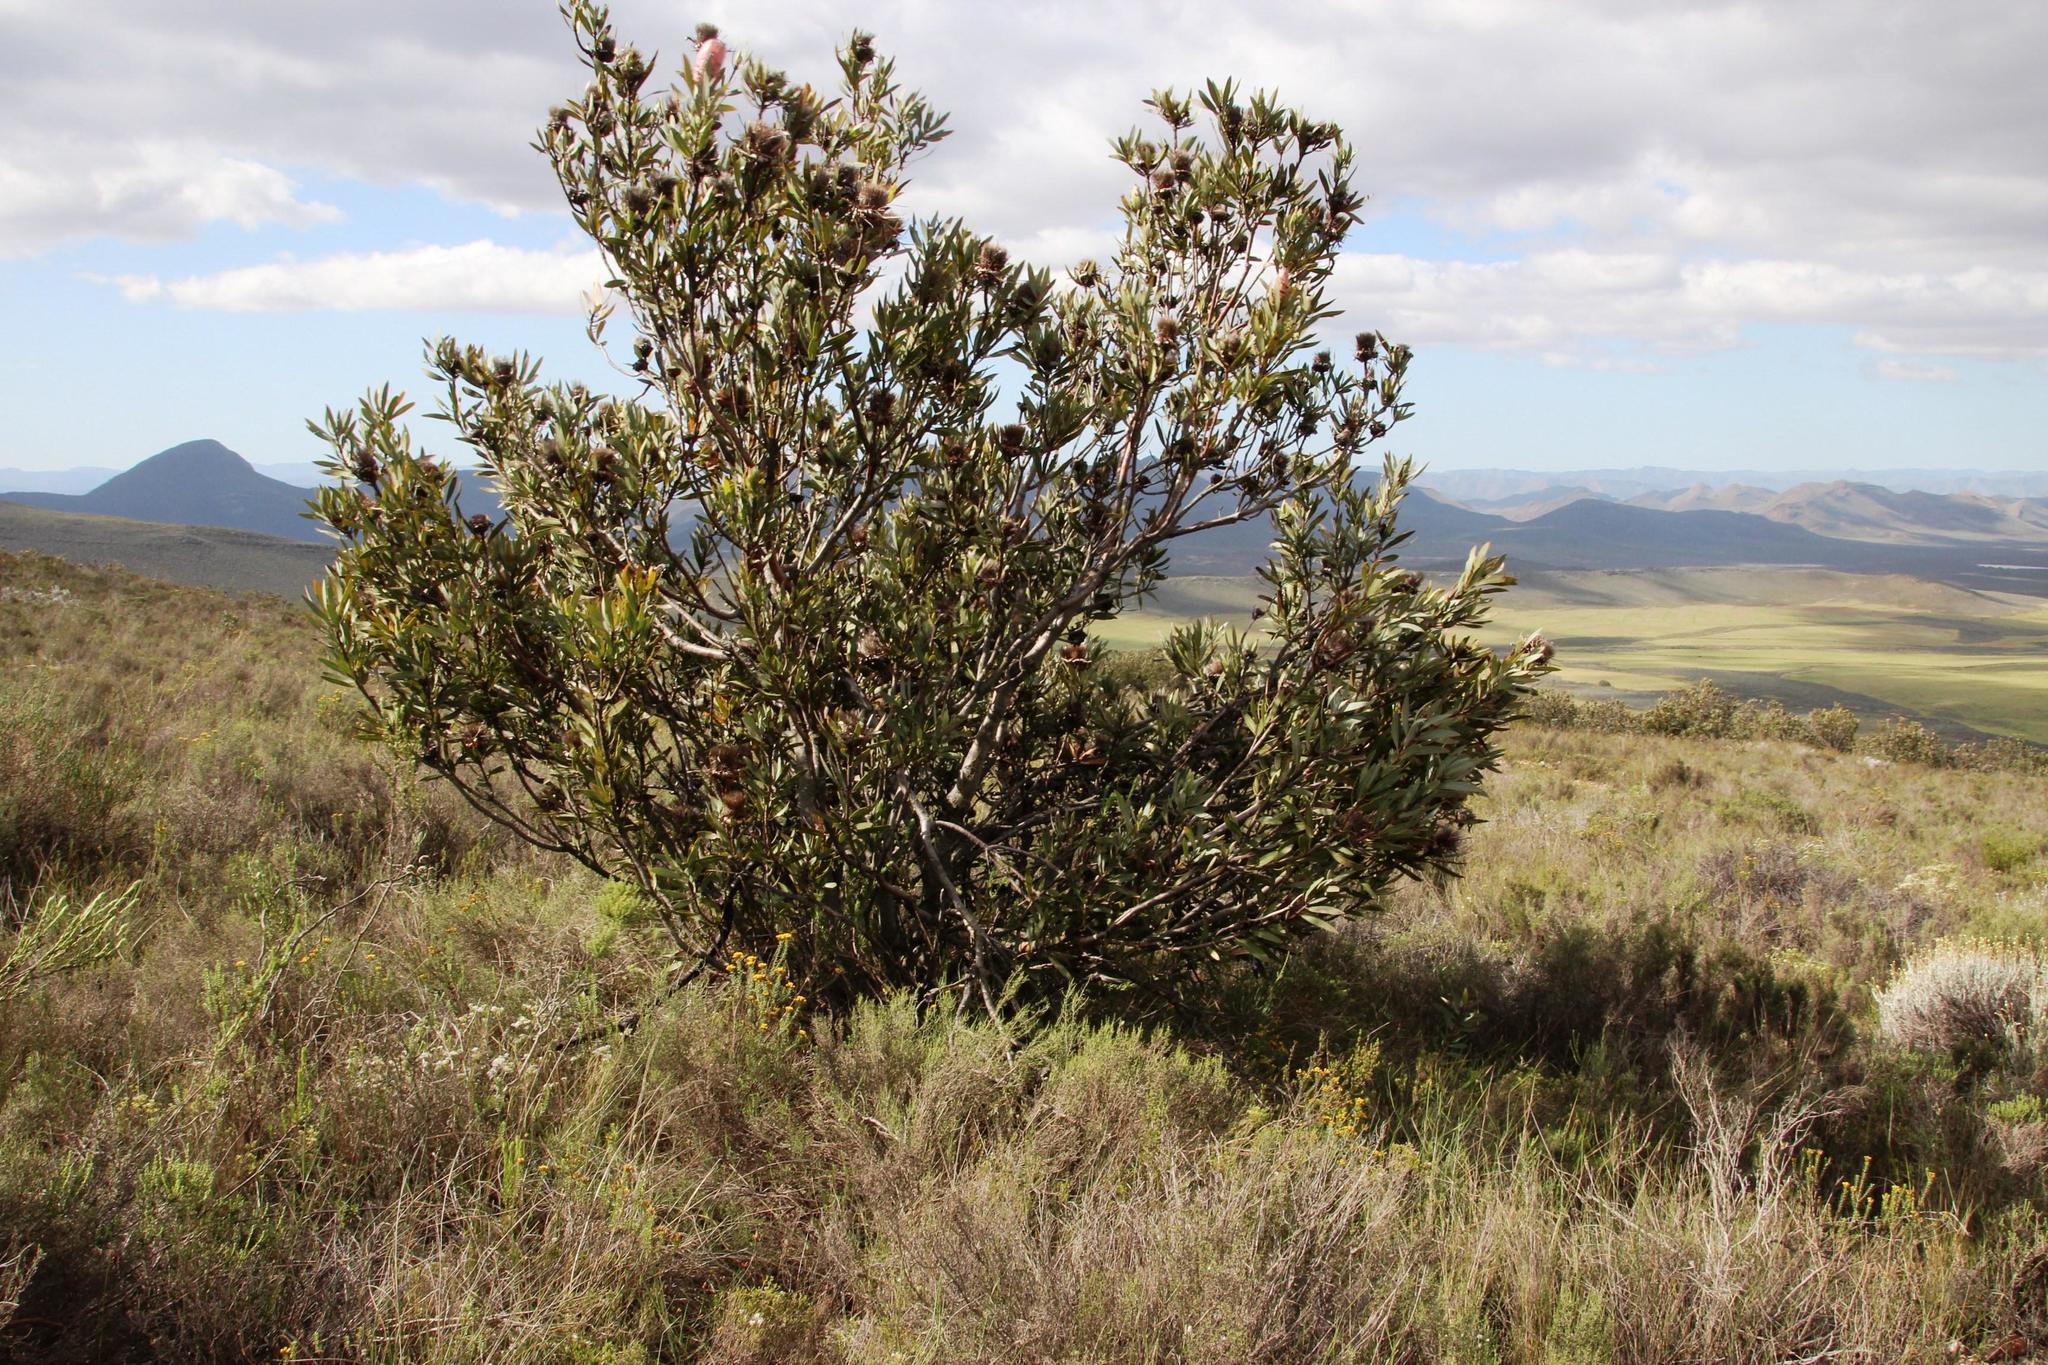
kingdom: Plantae
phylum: Tracheophyta
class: Magnoliopsida
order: Proteales
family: Proteaceae
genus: Protea
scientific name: Protea laurifolia
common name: Grey-leaf sugarbsh
